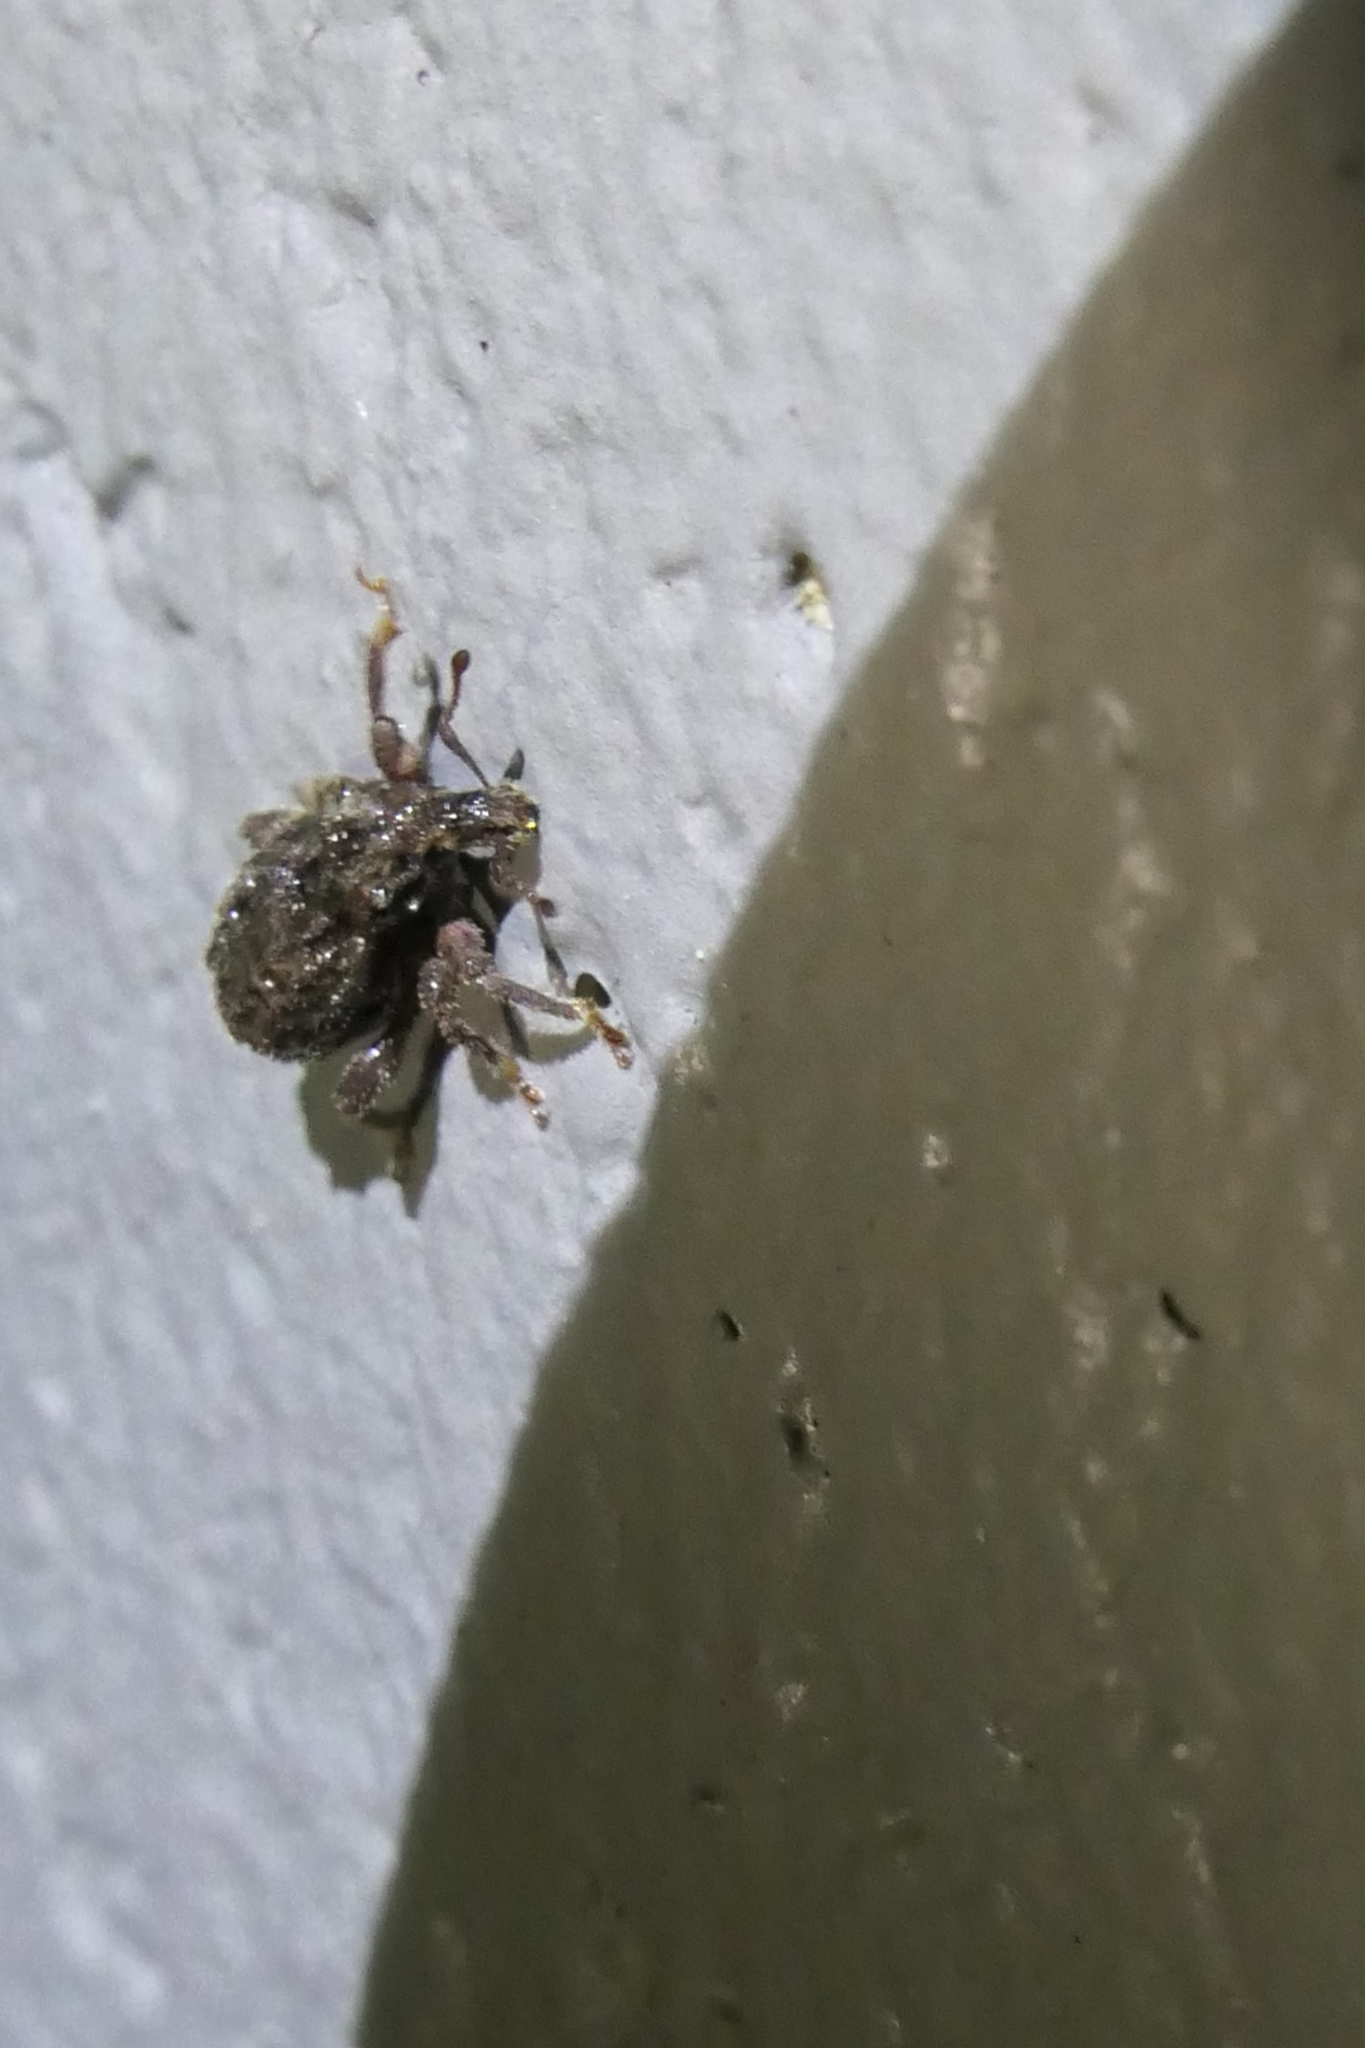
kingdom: Animalia
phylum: Arthropoda
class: Insecta
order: Coleoptera
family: Curculionidae
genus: Epitimetes
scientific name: Epitimetes grisealis
